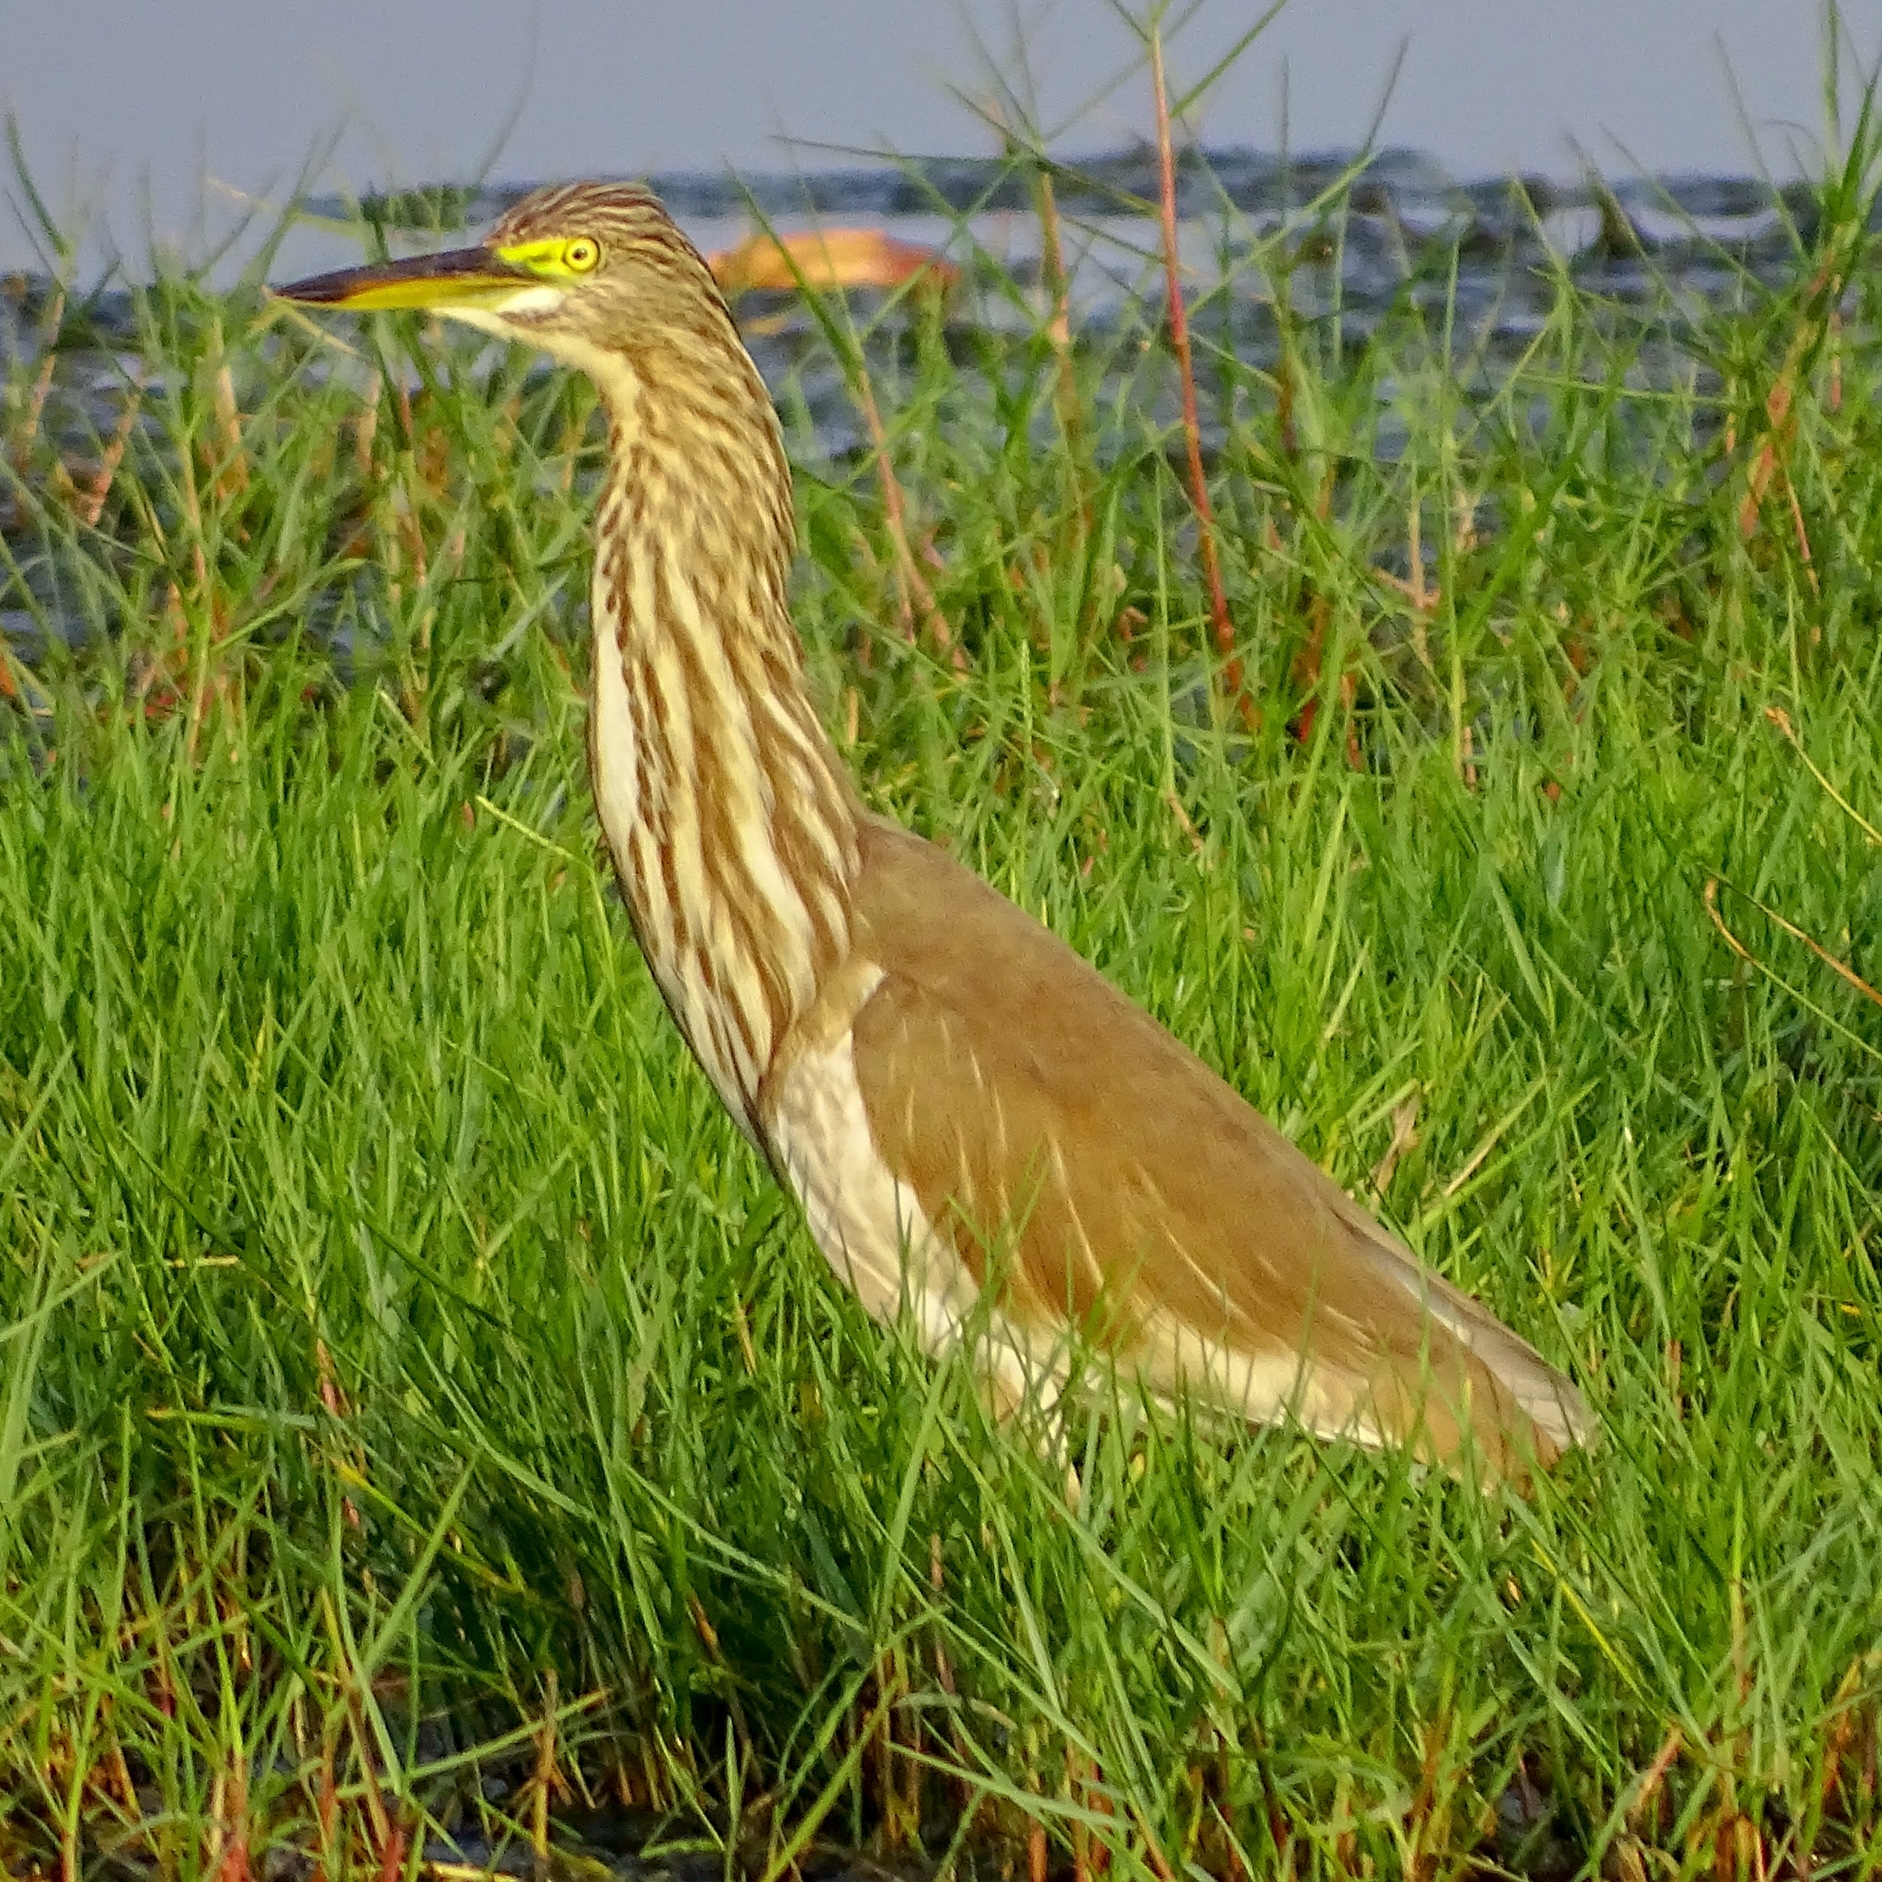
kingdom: Animalia
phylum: Chordata
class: Aves
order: Pelecaniformes
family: Ardeidae
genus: Ardeola
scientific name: Ardeola grayii
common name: Indian pond heron
